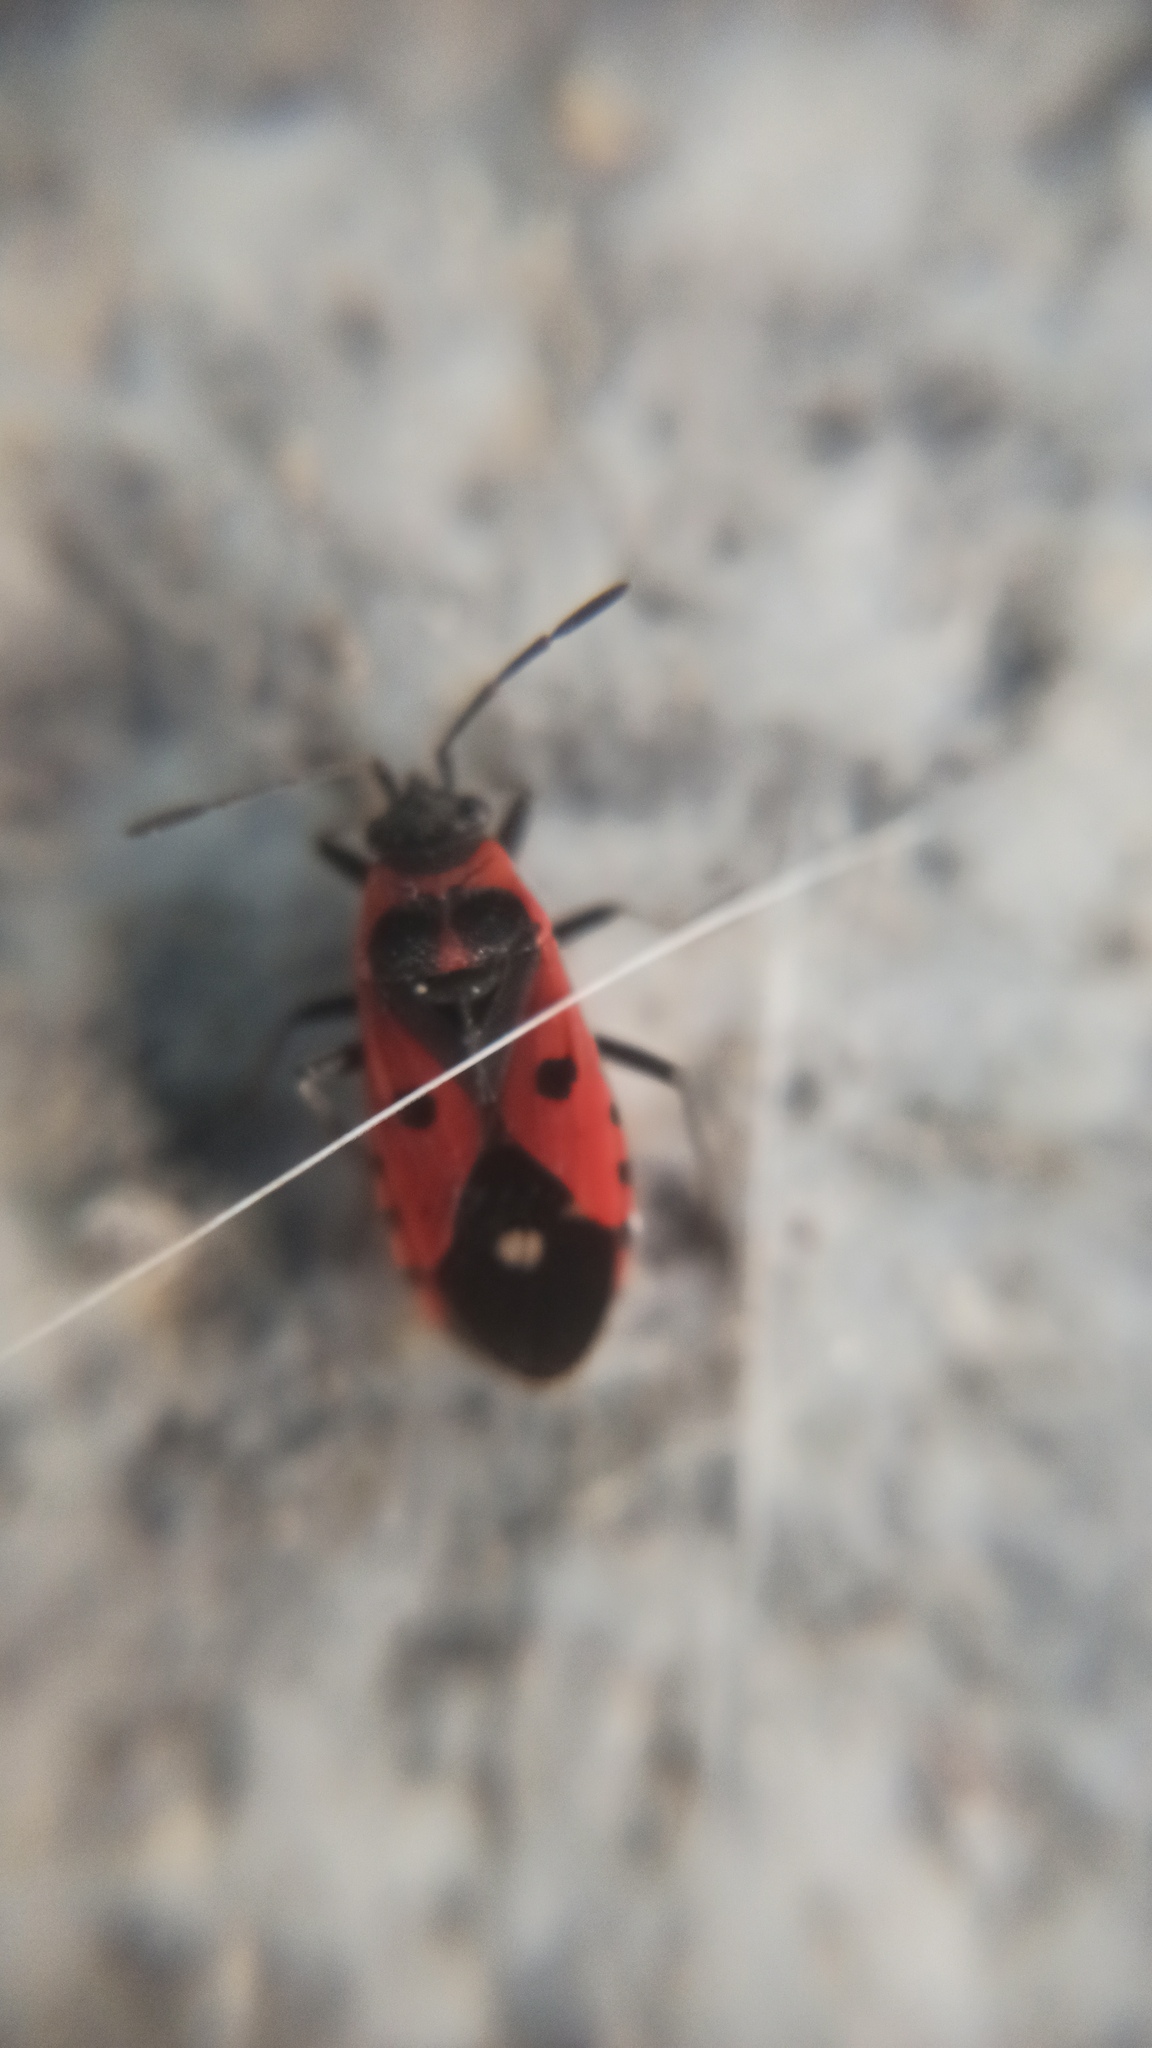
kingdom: Animalia
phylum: Arthropoda
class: Insecta
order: Hemiptera
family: Lygaeidae
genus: Melanocoryphus
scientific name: Melanocoryphus albomaculatus
